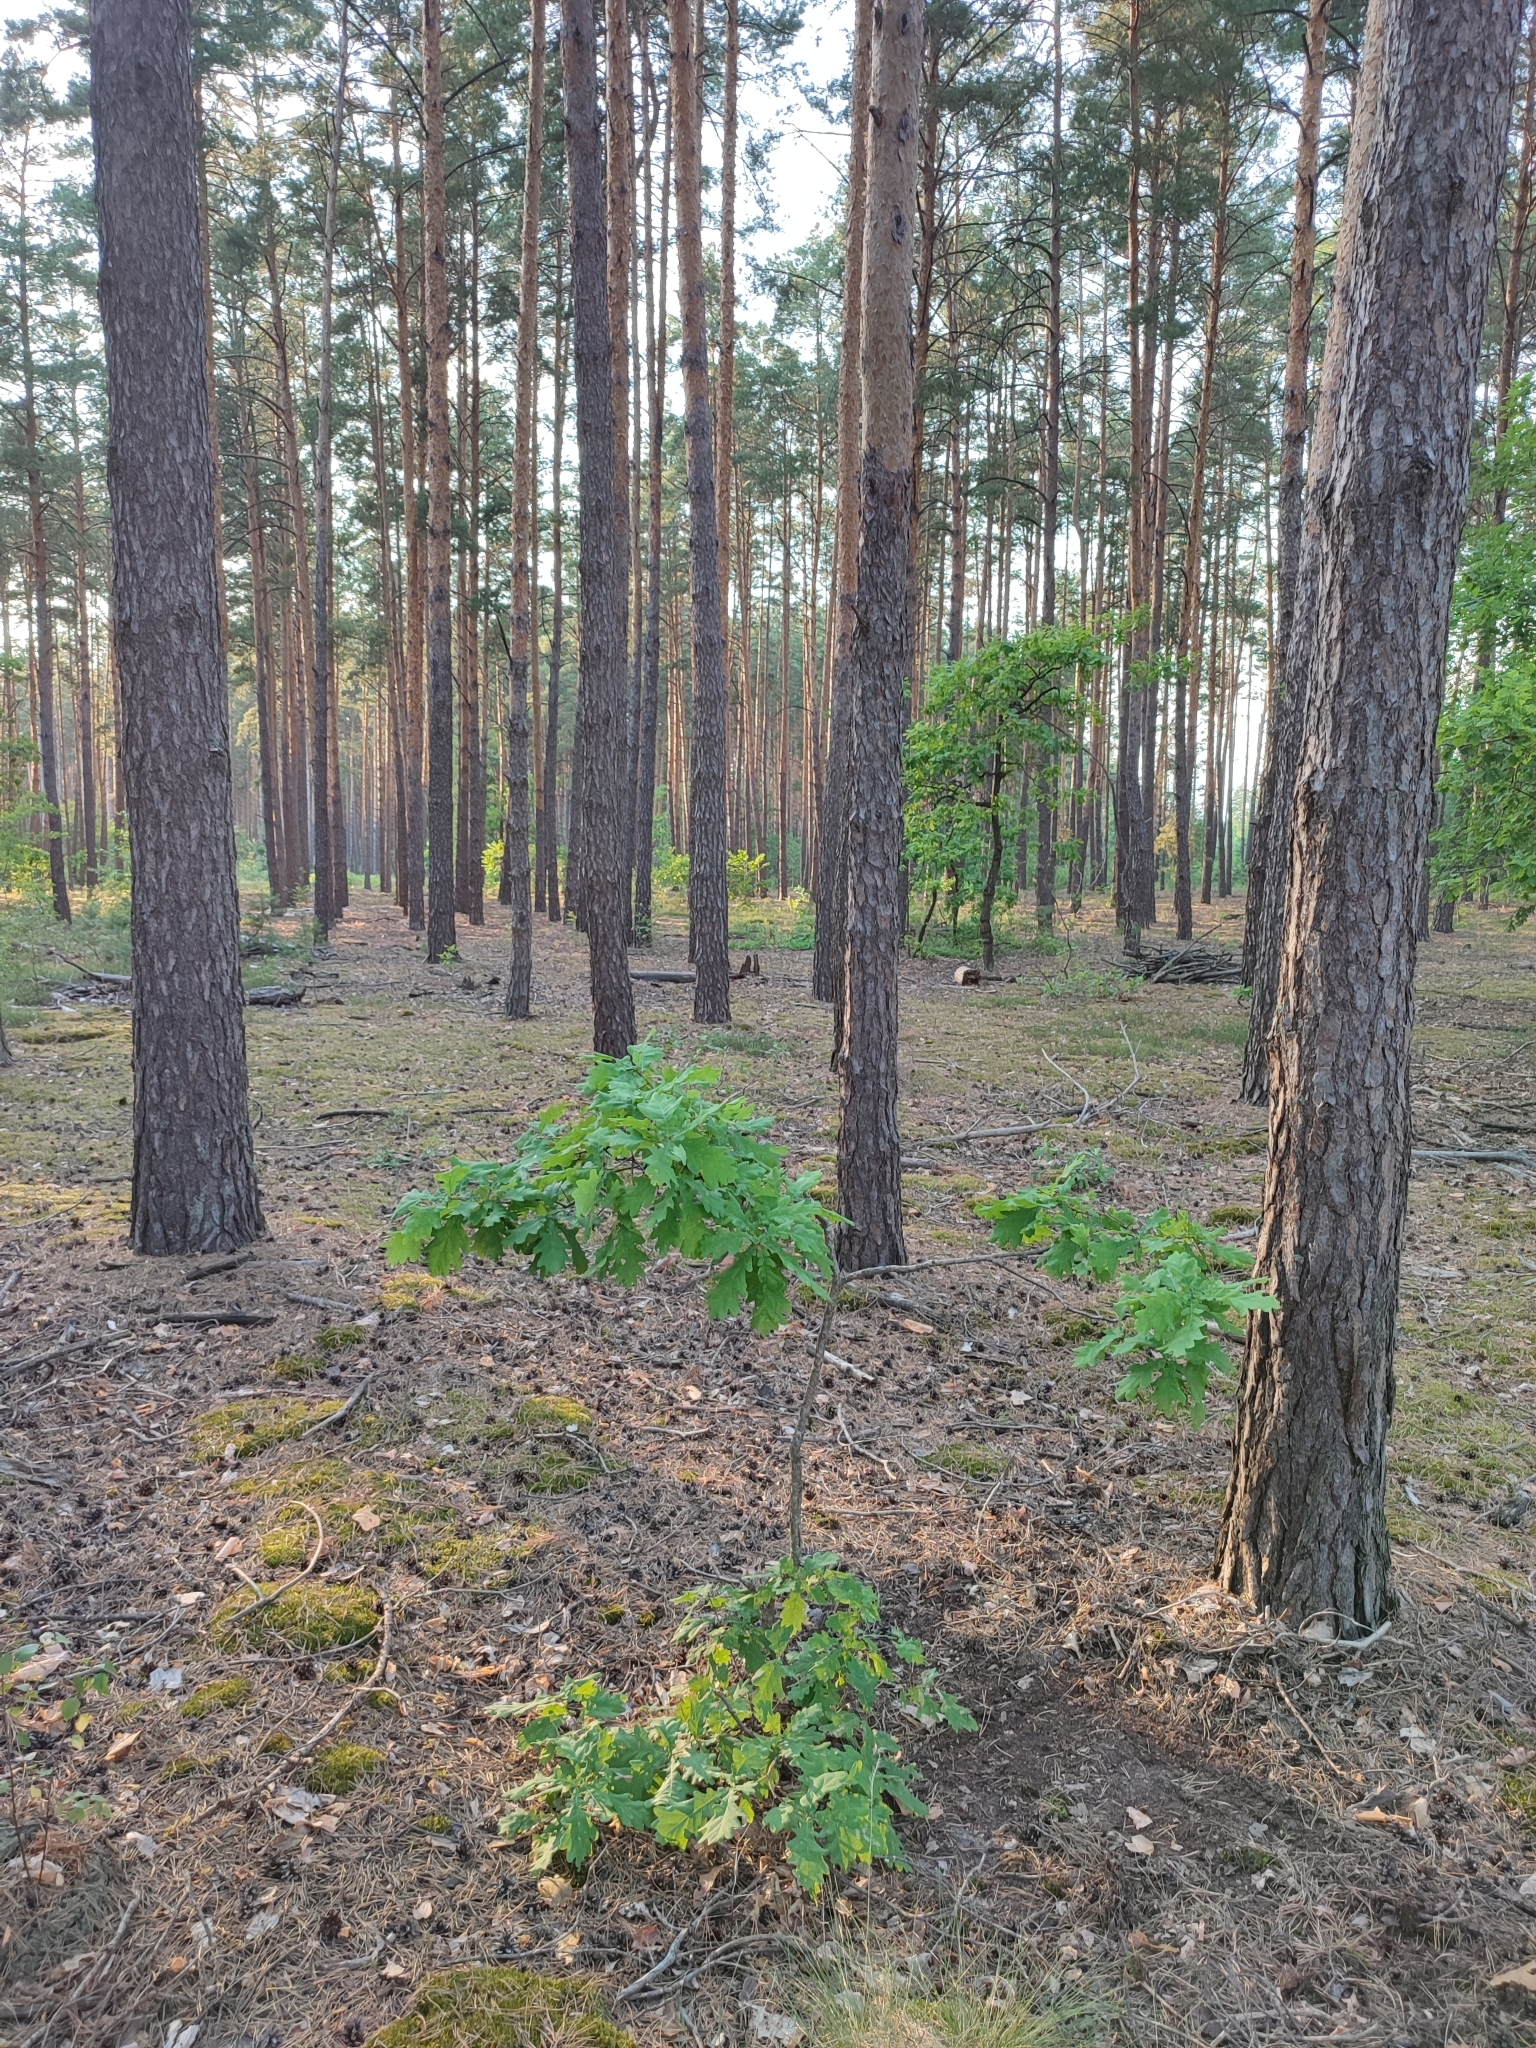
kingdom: Plantae
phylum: Tracheophyta
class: Magnoliopsida
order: Fagales
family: Fagaceae
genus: Quercus
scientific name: Quercus robur
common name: Pedunculate oak
